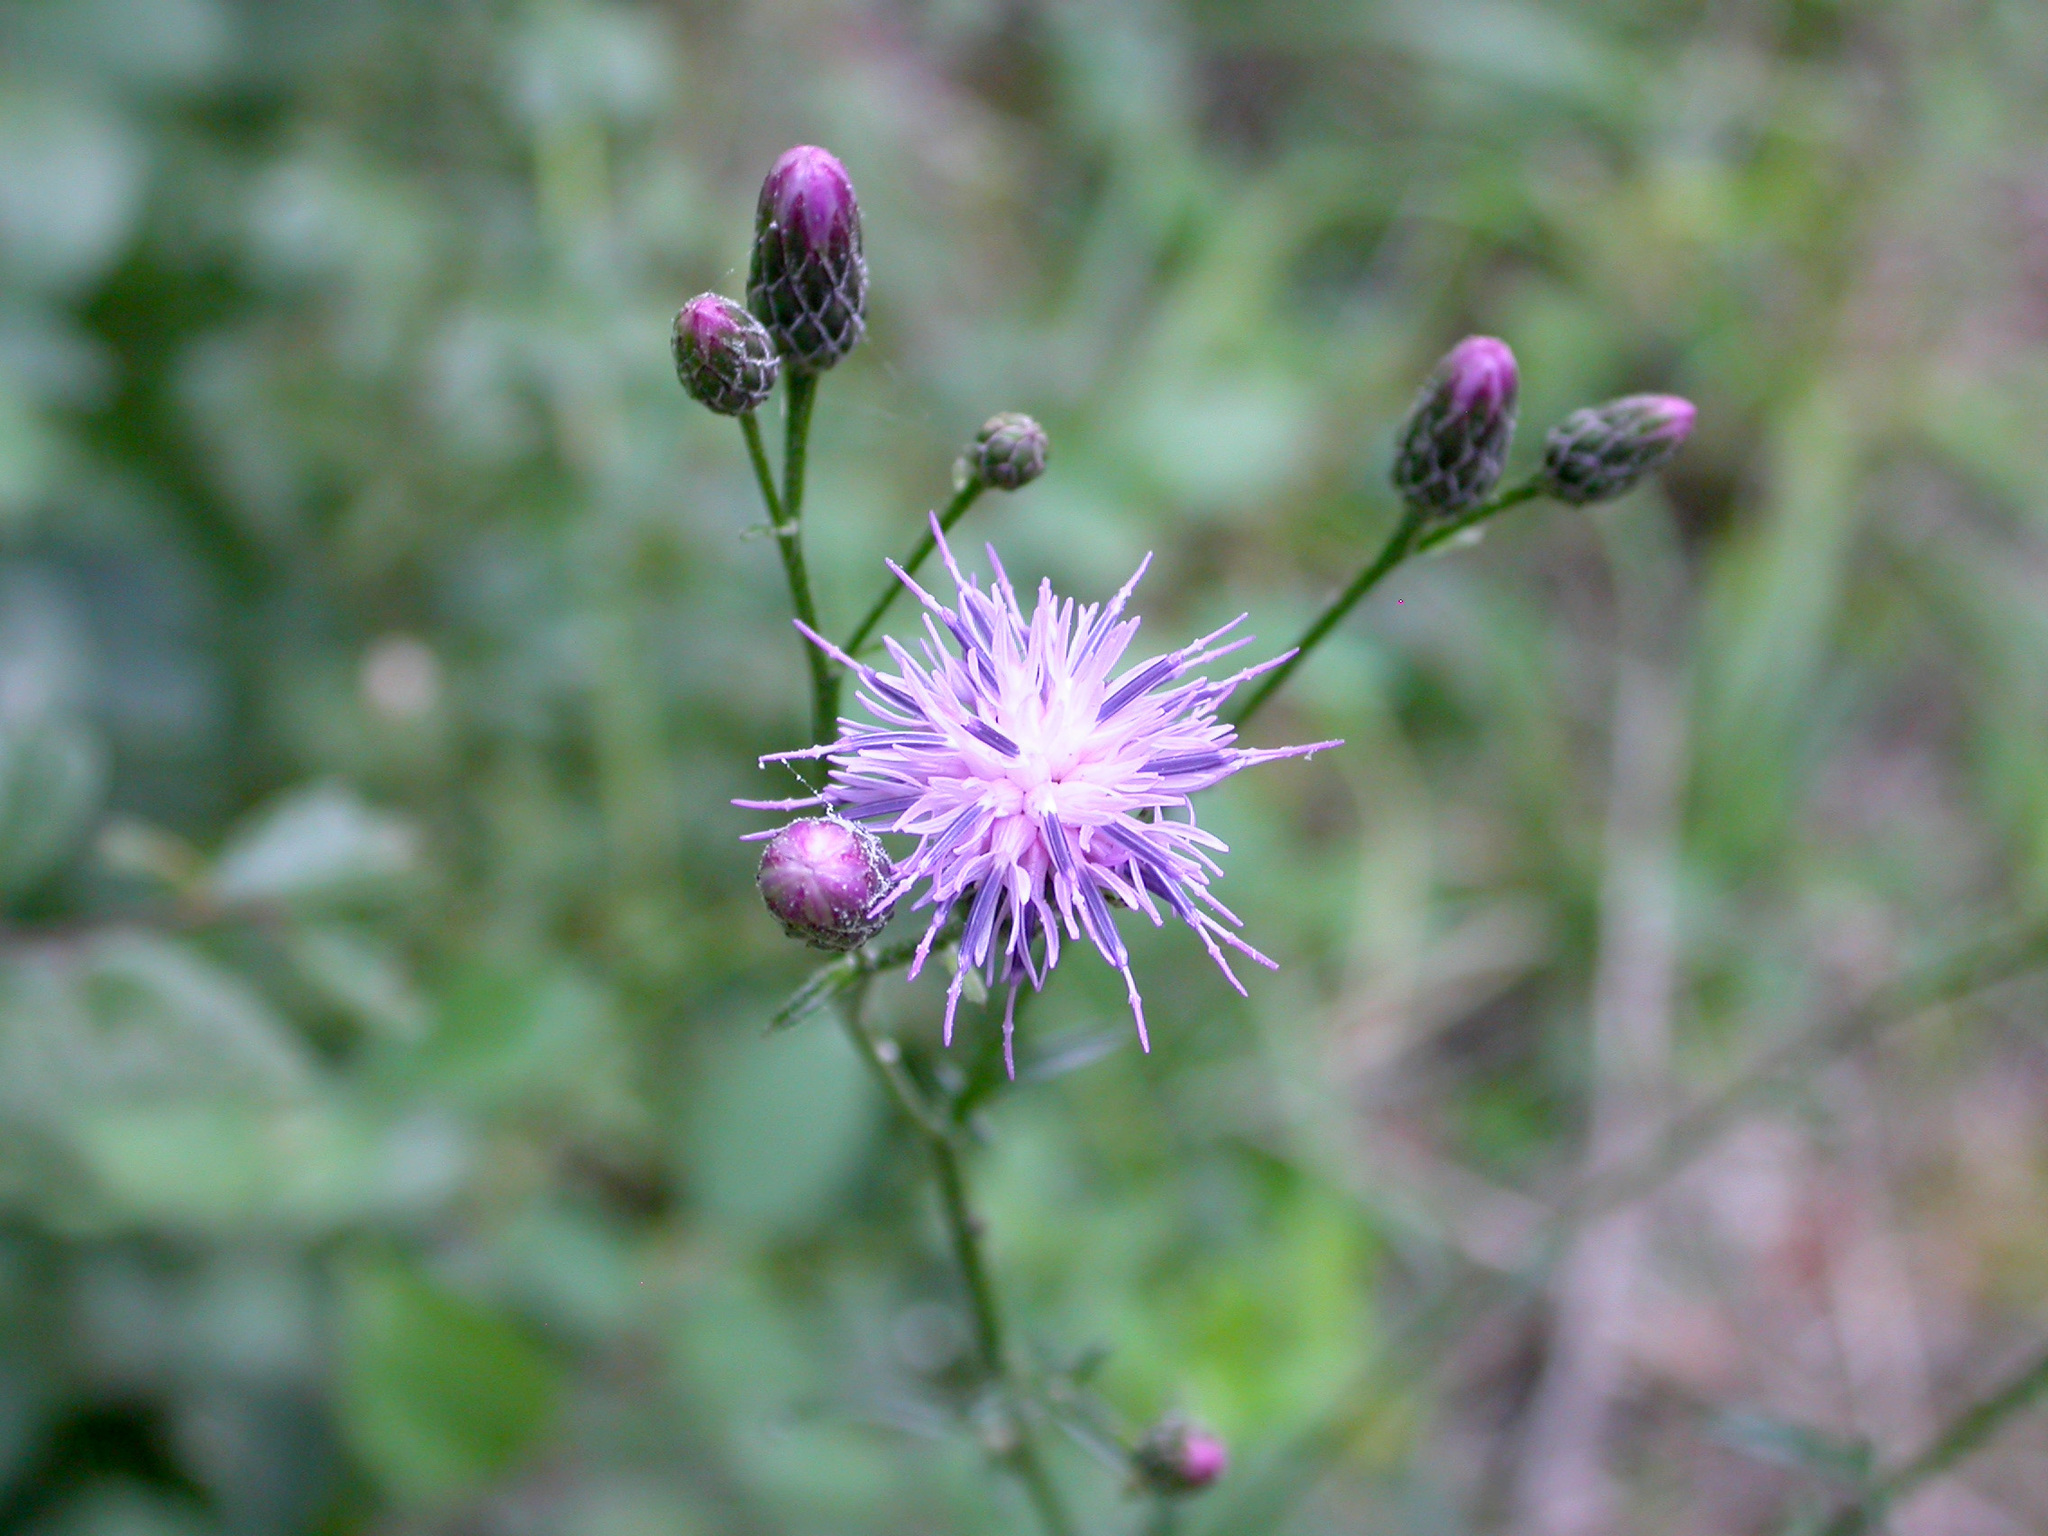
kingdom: Plantae
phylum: Tracheophyta
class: Magnoliopsida
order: Asterales
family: Asteraceae
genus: Serratula
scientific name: Serratula tinctoria
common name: Saw-wort
